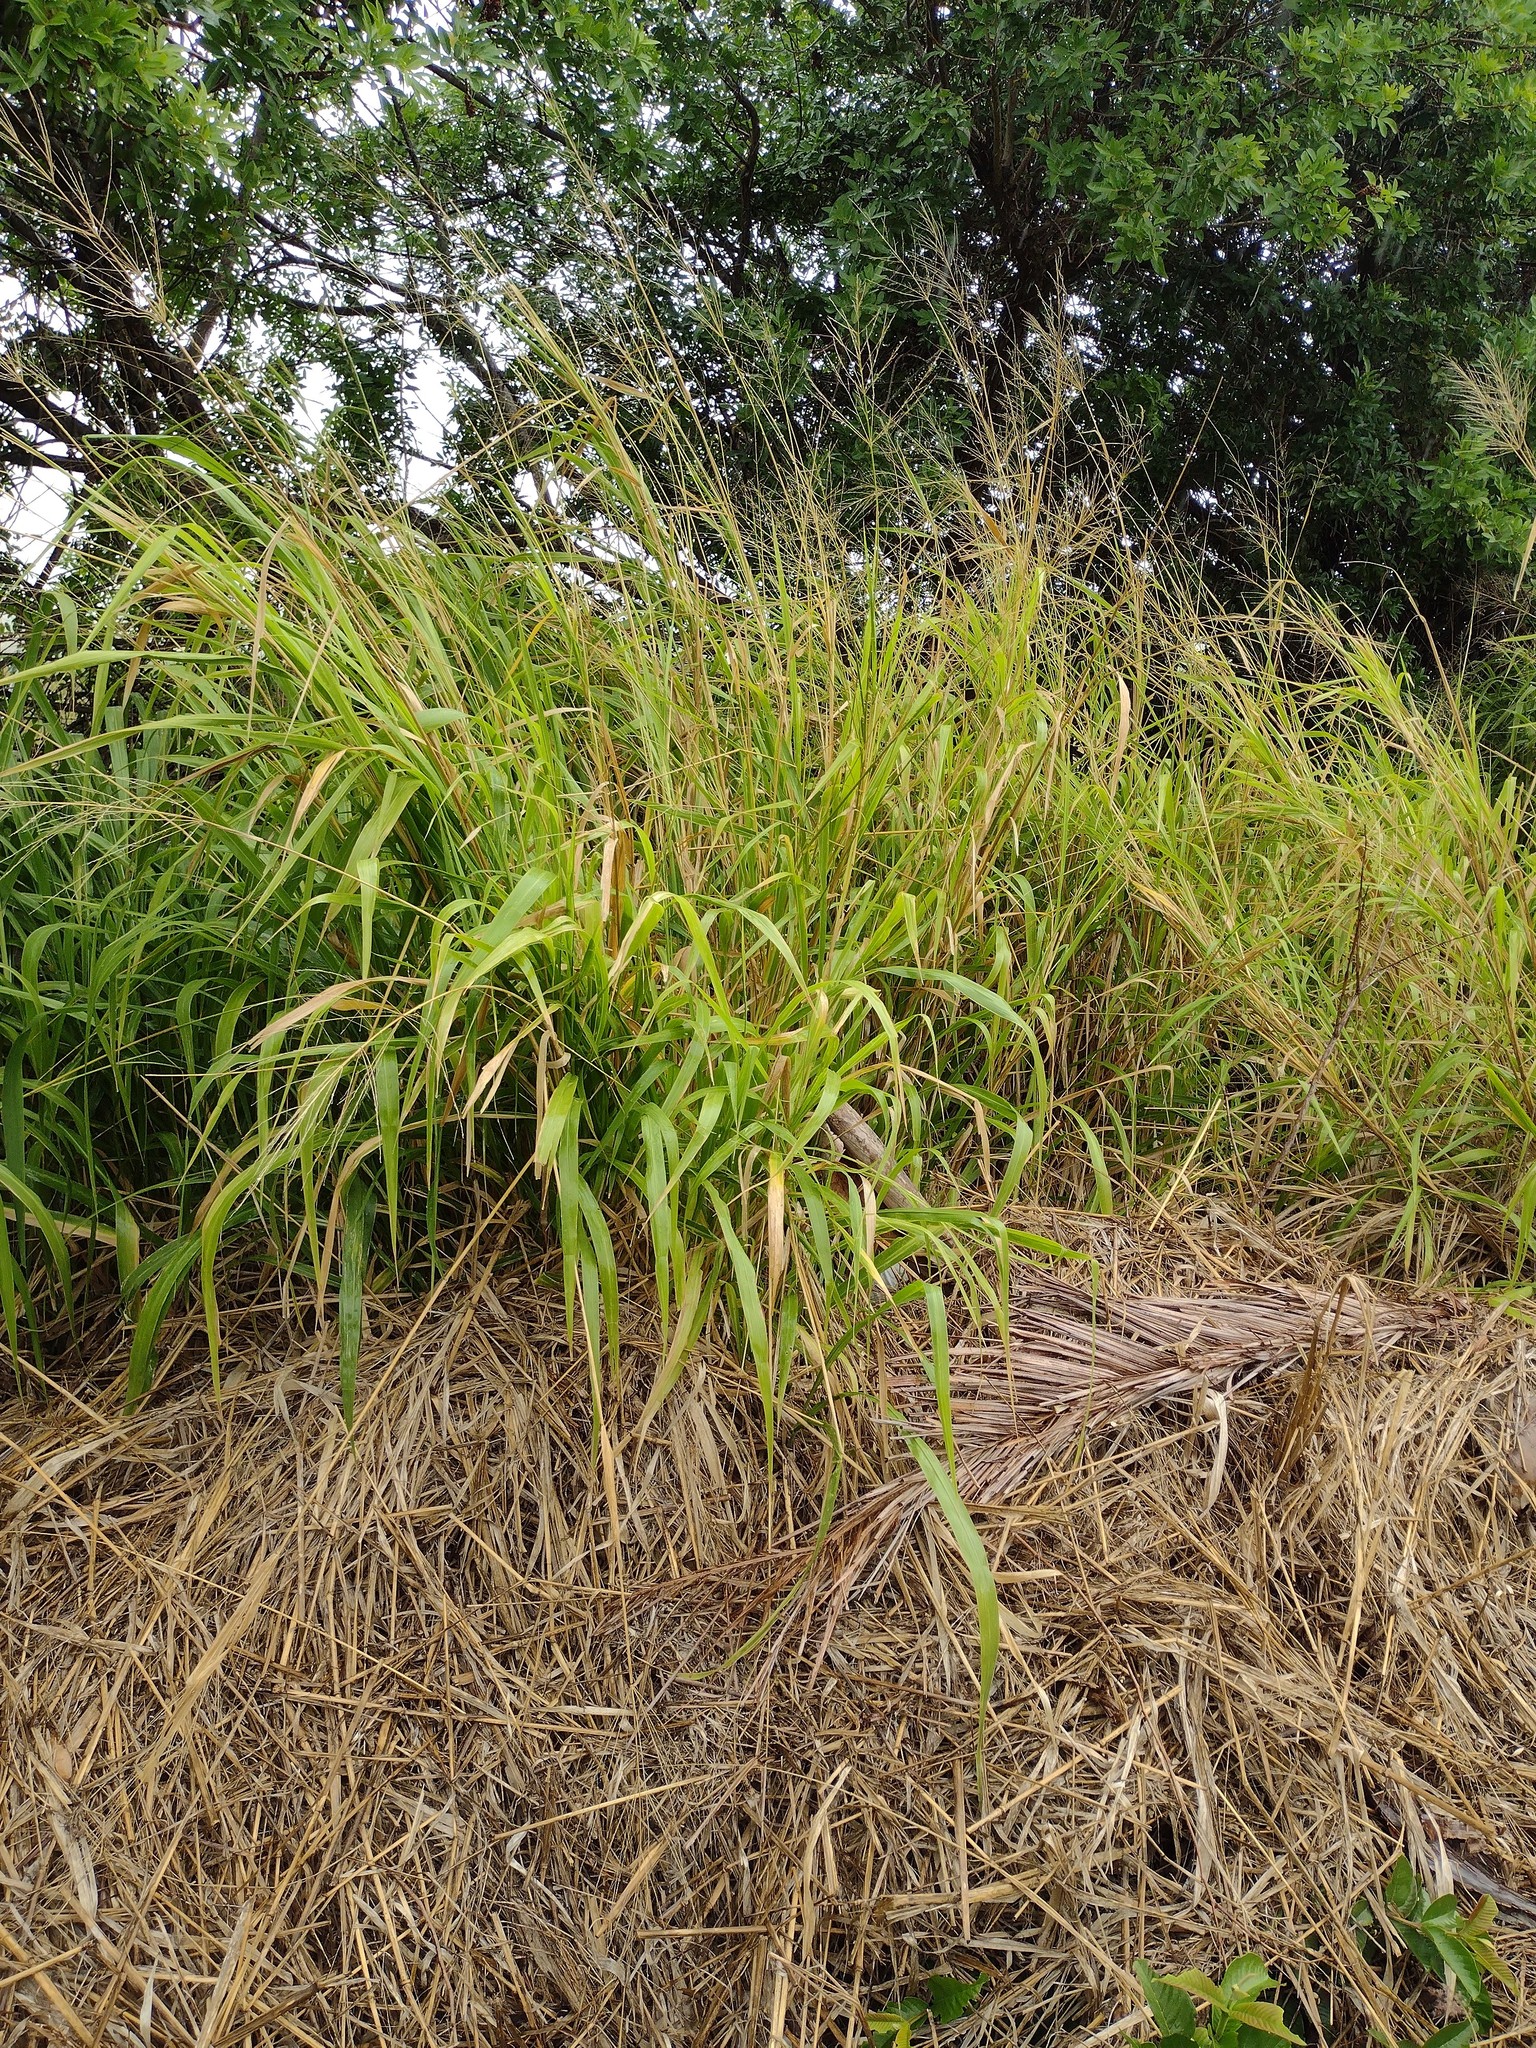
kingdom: Plantae
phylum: Tracheophyta
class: Liliopsida
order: Poales
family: Poaceae
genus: Megathyrsus
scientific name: Megathyrsus maximus
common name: Guineagrass
